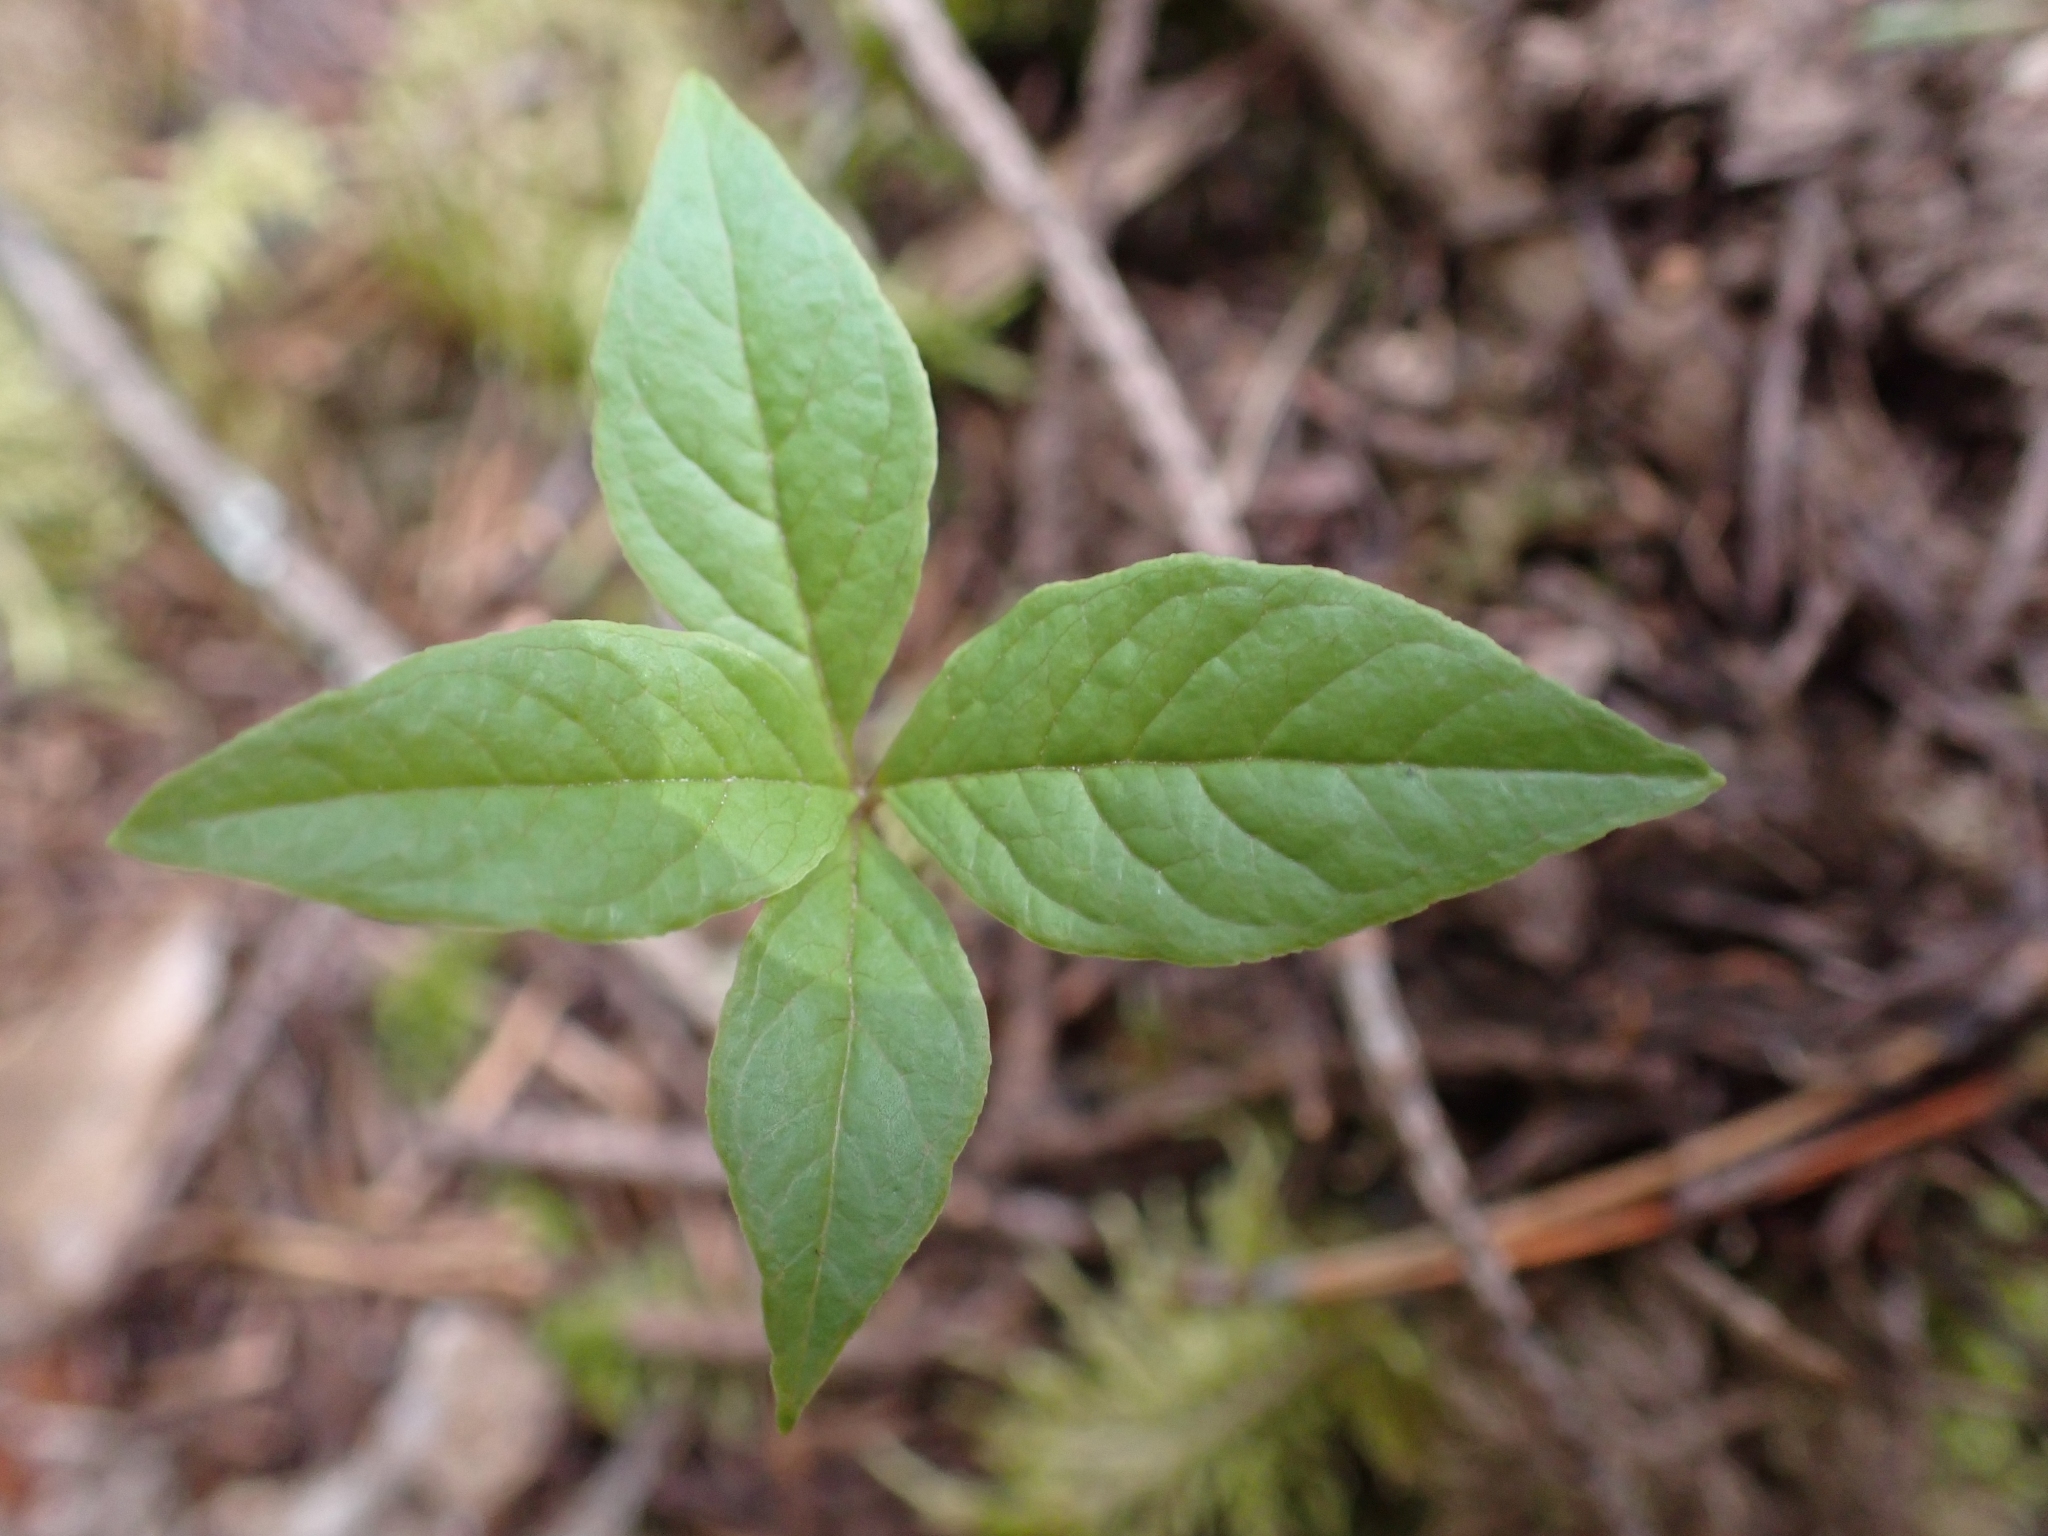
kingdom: Plantae
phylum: Tracheophyta
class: Magnoliopsida
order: Ericales
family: Primulaceae
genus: Lysimachia
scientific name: Lysimachia latifolia
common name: Pacific starflower
